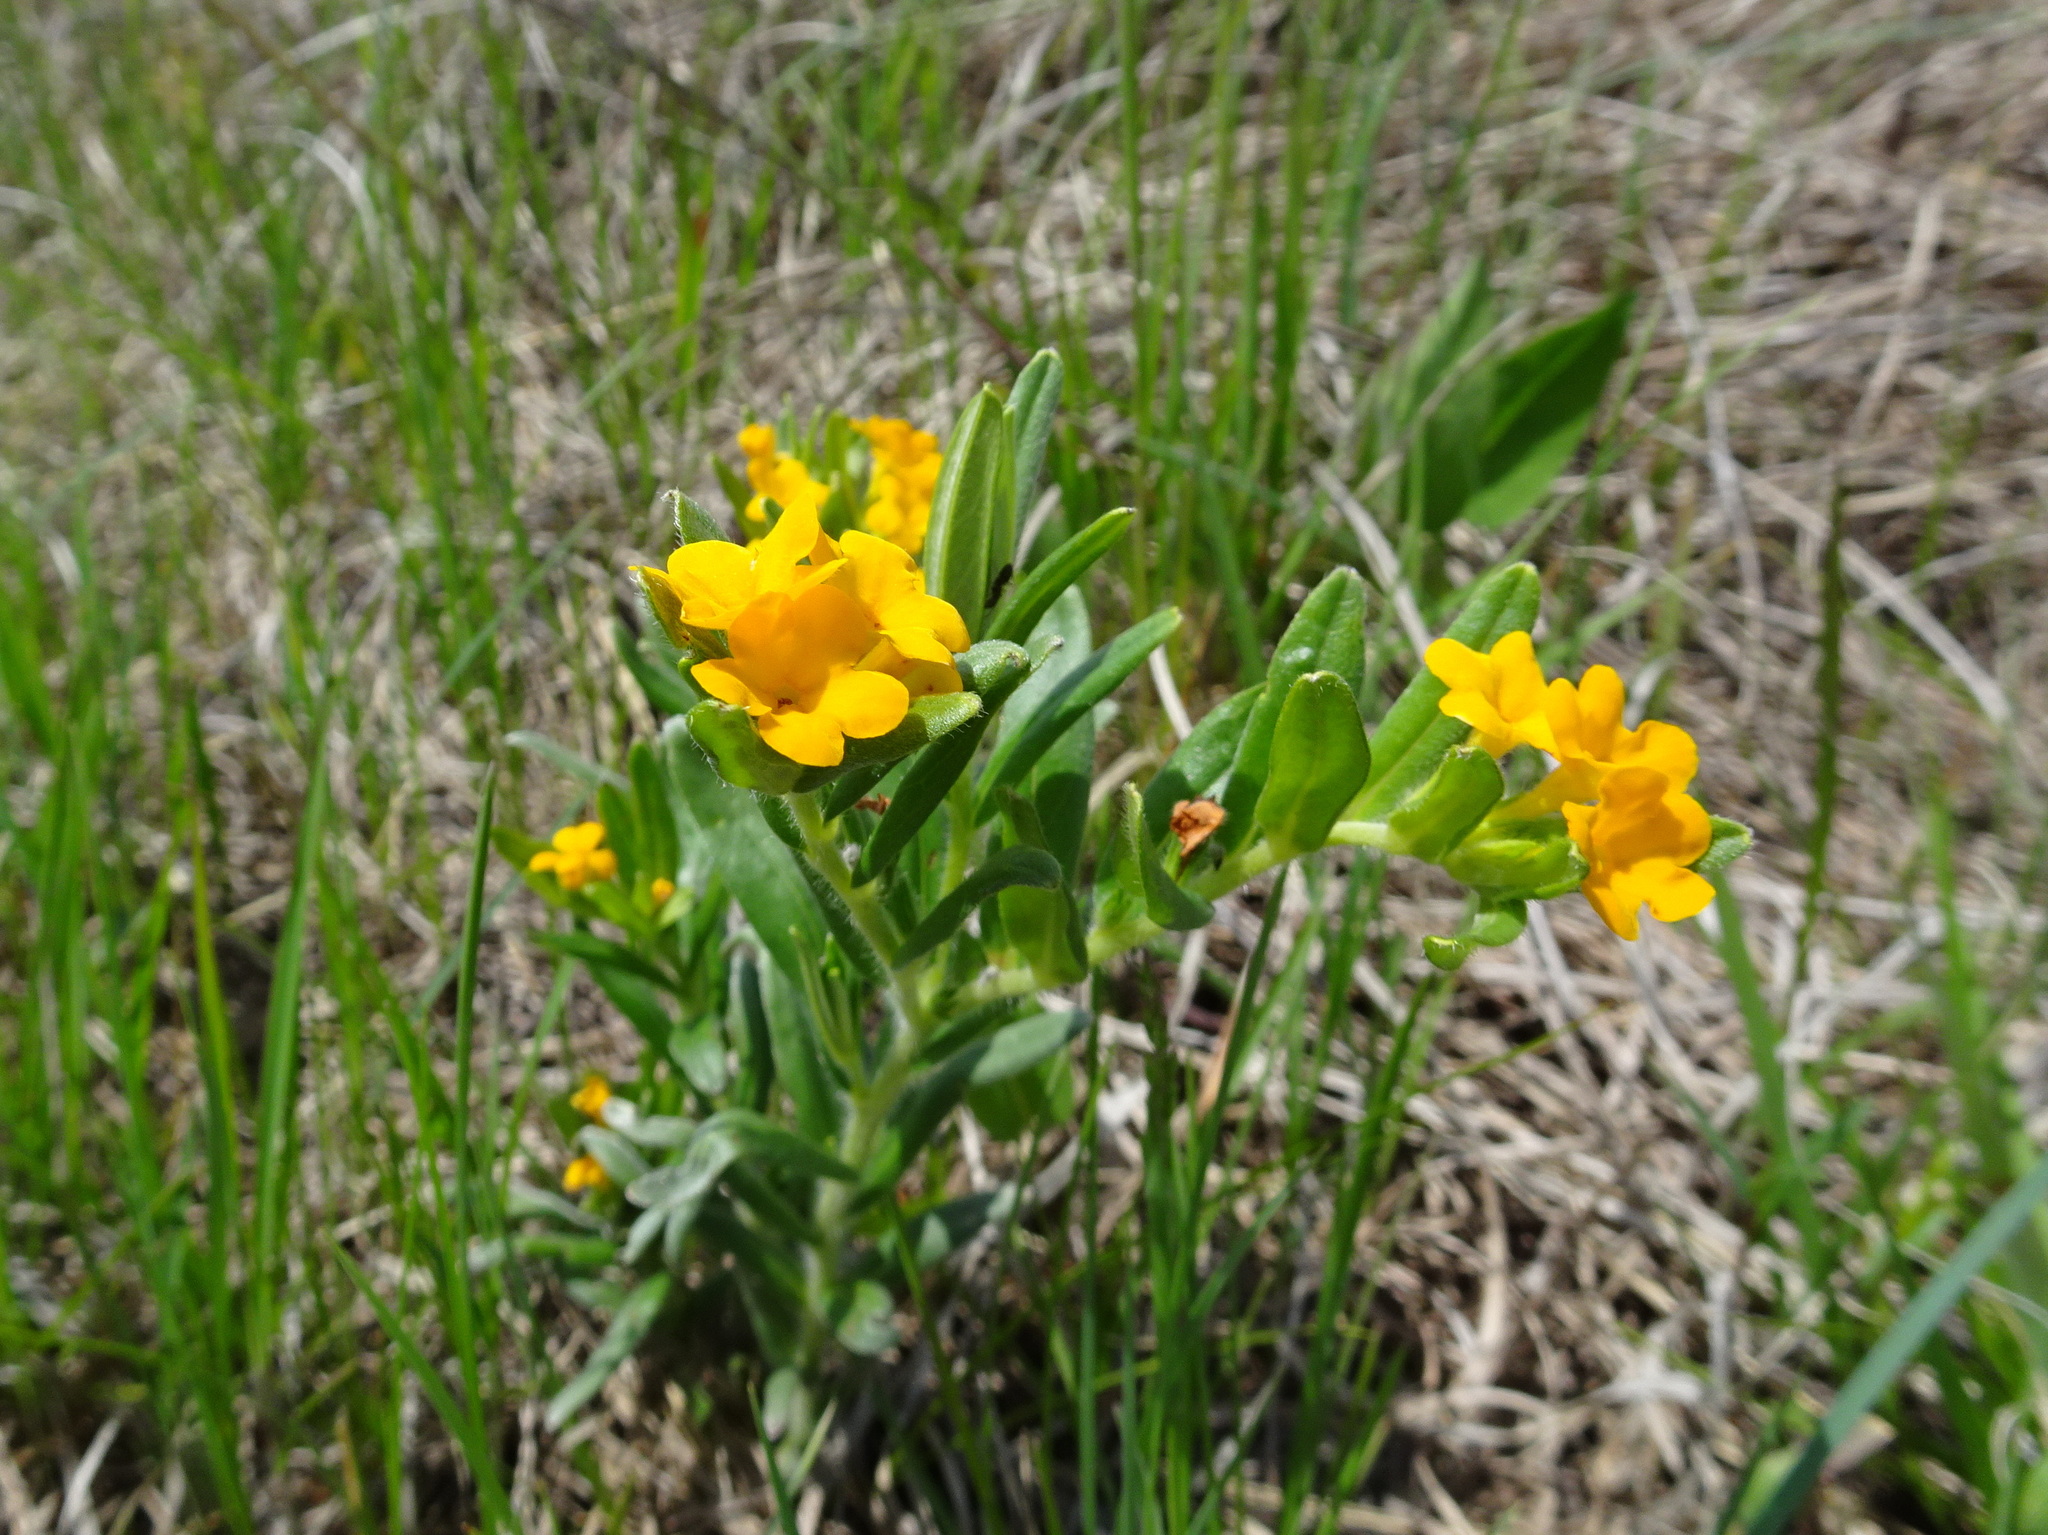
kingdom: Plantae
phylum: Tracheophyta
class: Magnoliopsida
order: Boraginales
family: Boraginaceae
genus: Lithospermum
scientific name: Lithospermum canescens
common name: Hoary puccoon
